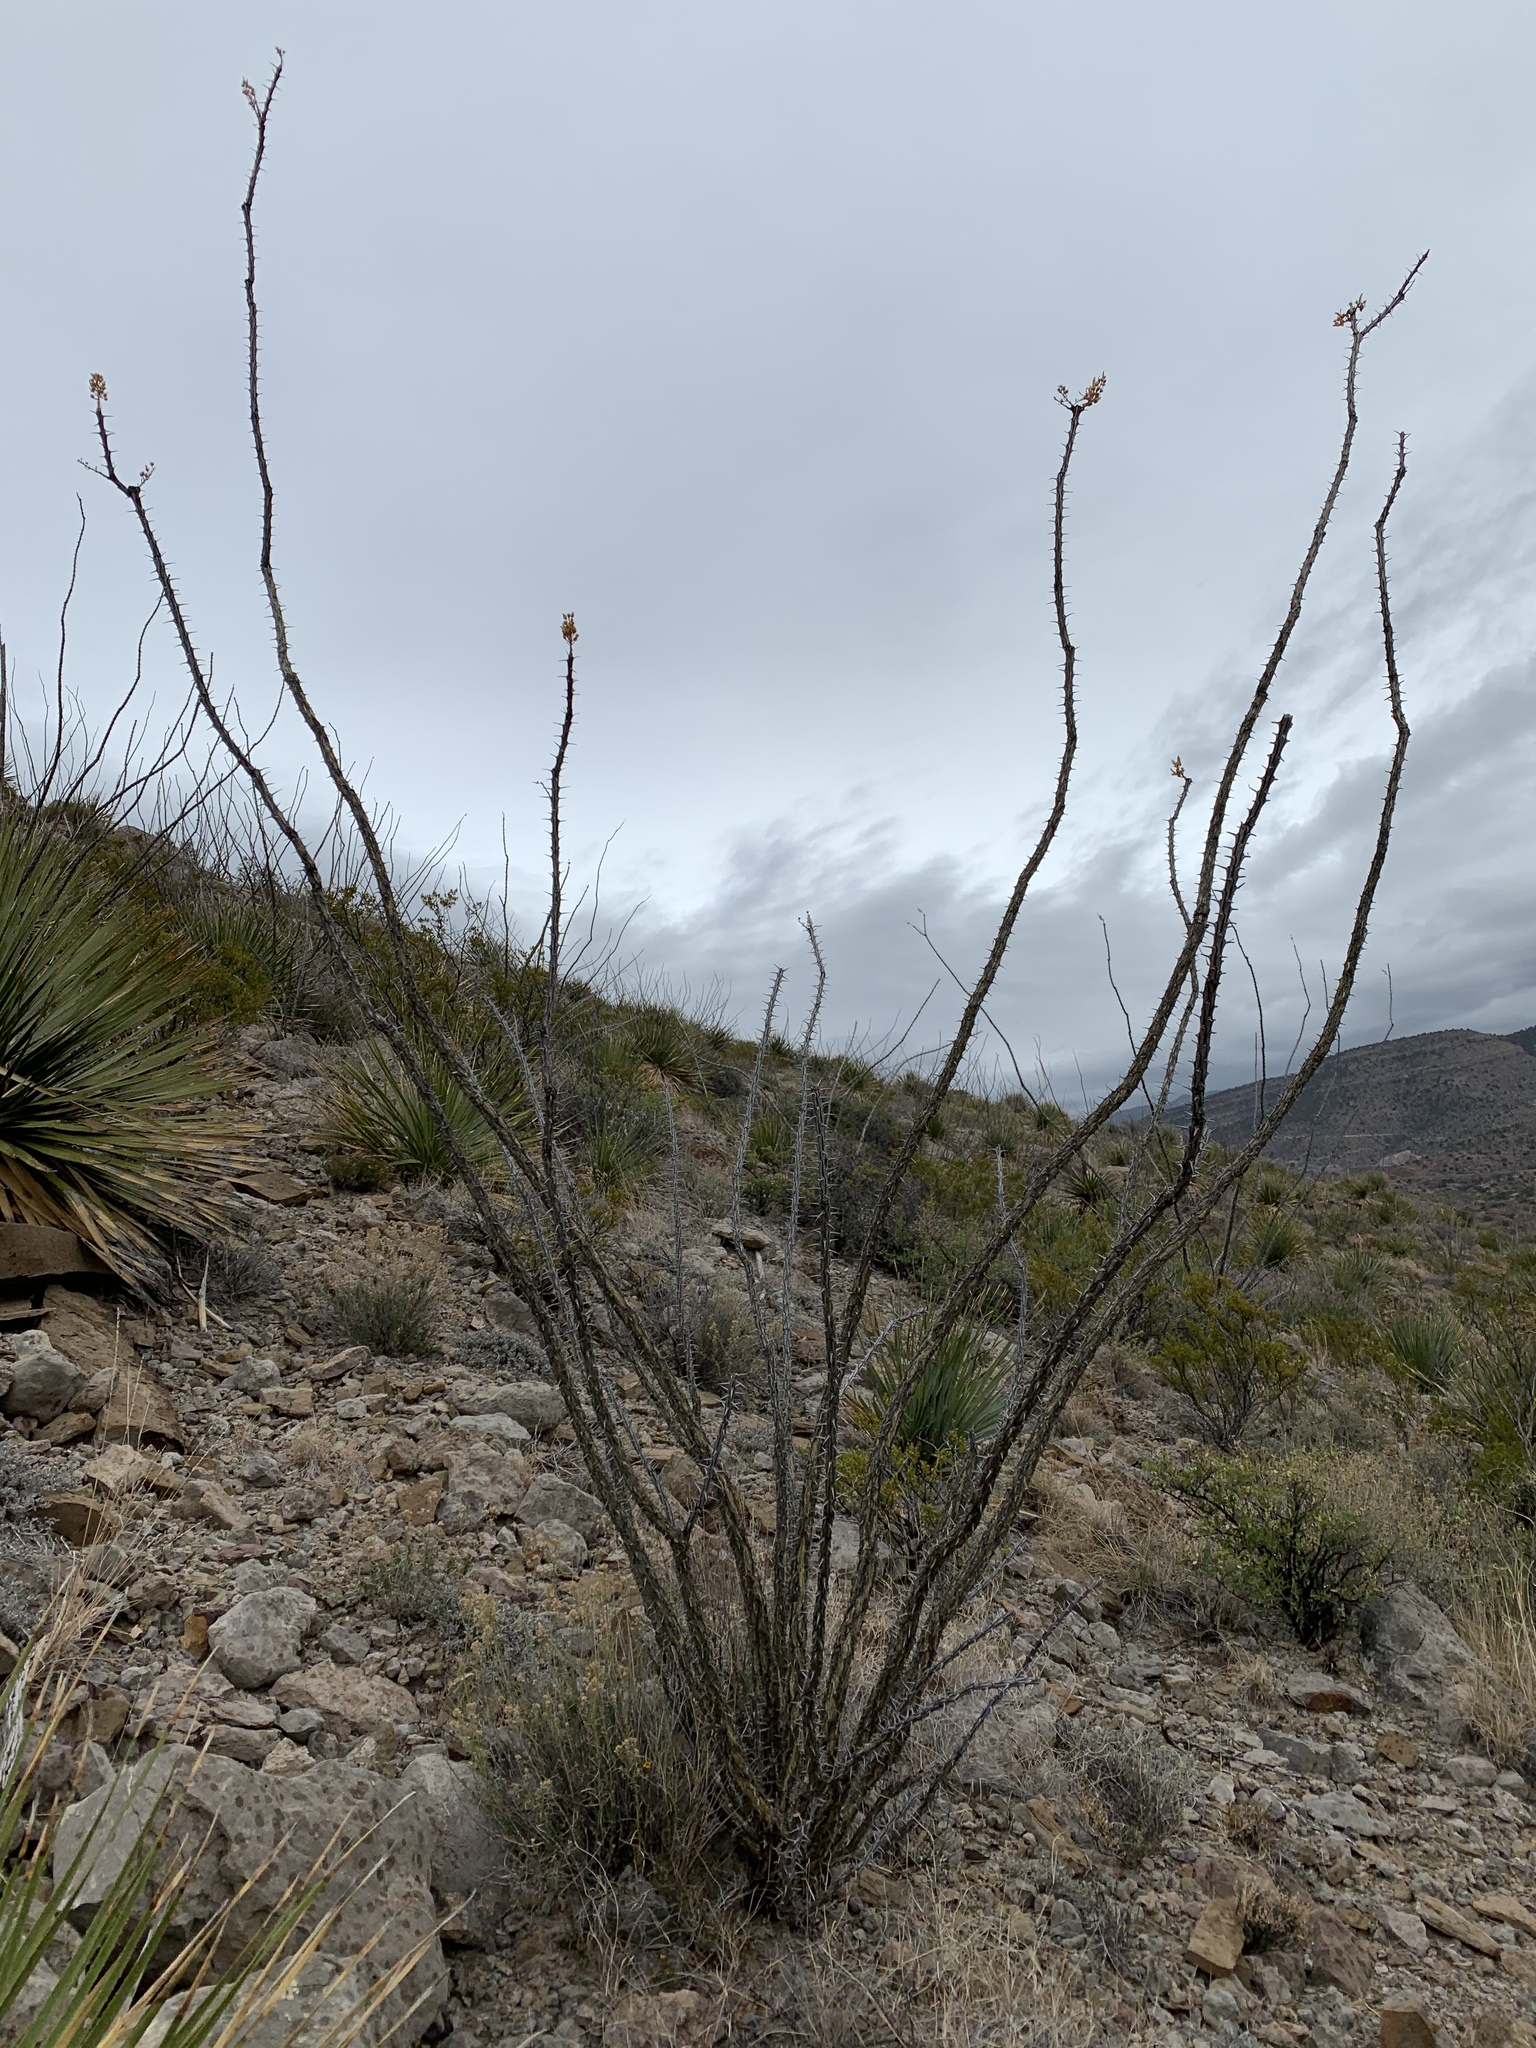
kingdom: Plantae
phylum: Tracheophyta
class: Magnoliopsida
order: Ericales
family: Fouquieriaceae
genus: Fouquieria
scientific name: Fouquieria splendens
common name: Vine-cactus
